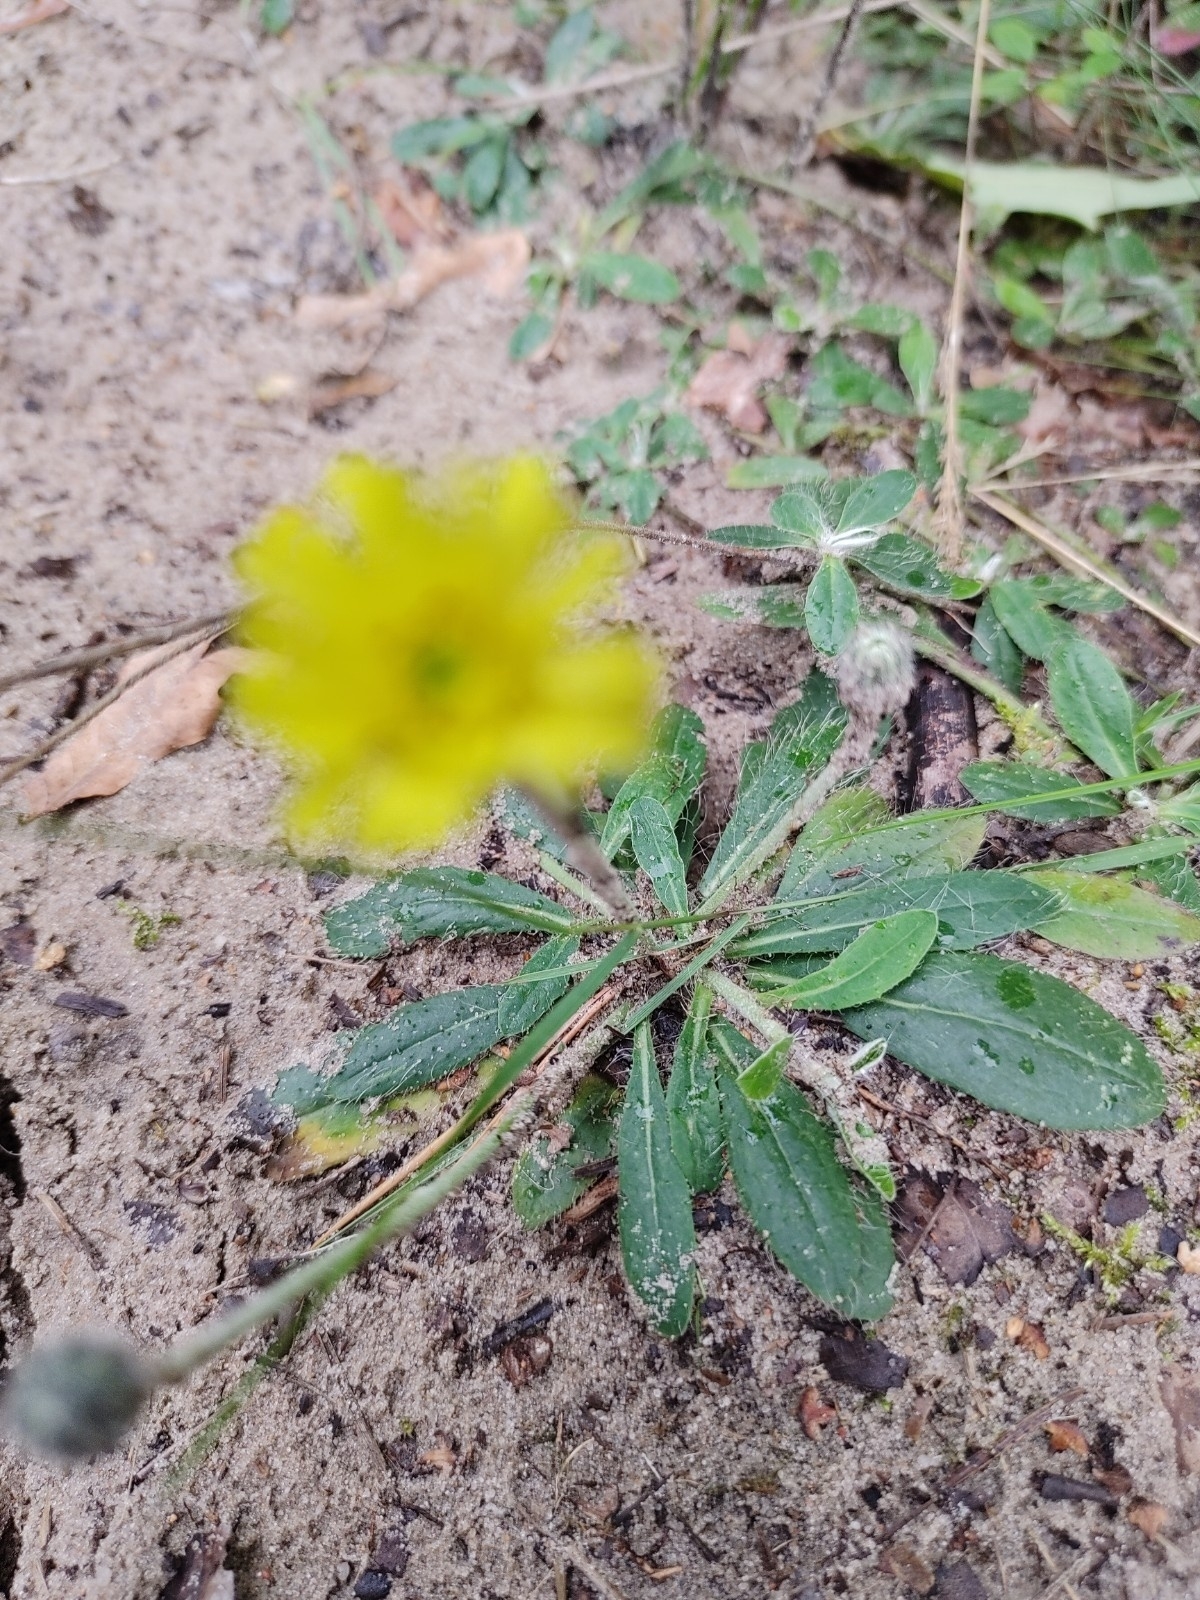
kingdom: Plantae
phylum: Tracheophyta
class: Magnoliopsida
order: Asterales
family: Asteraceae
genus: Pilosella
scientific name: Pilosella officinarum
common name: Mouse-ear hawkweed
